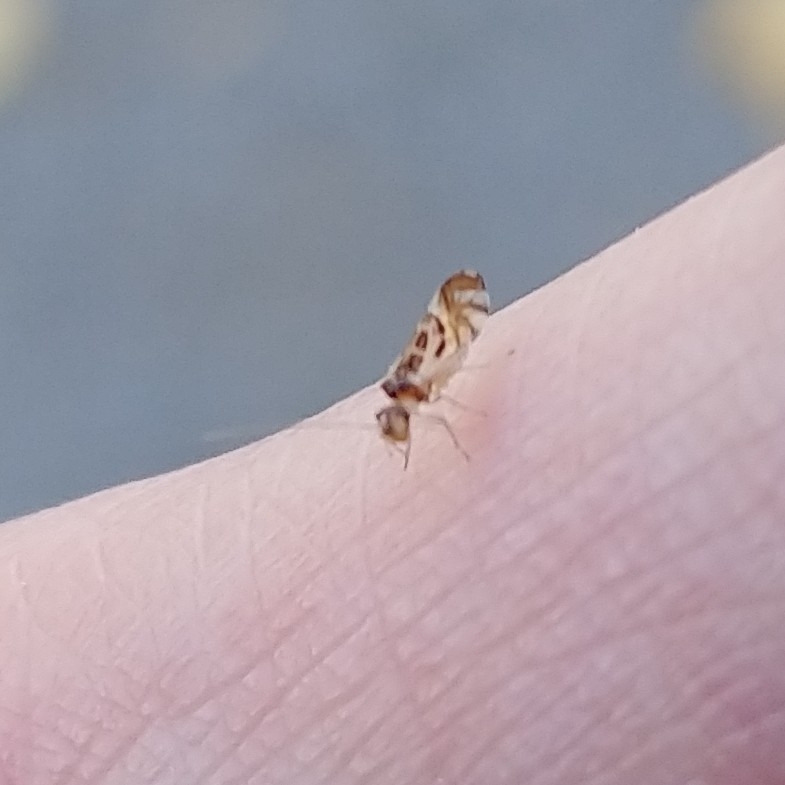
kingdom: Animalia
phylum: Arthropoda
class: Insecta
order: Psocodea
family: Stenopsocidae
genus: Graphopsocus
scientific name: Graphopsocus cruciatus
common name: Lizard bark louse
